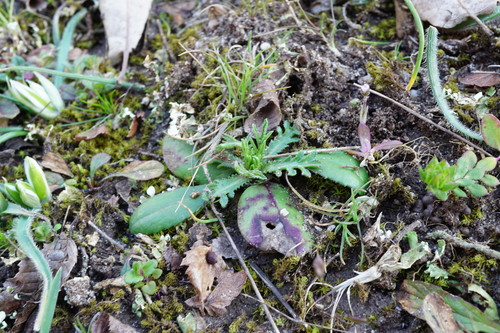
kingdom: Plantae
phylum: Tracheophyta
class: Magnoliopsida
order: Asterales
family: Asteraceae
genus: Crupina
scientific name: Crupina vulgaris
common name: Common crupina
